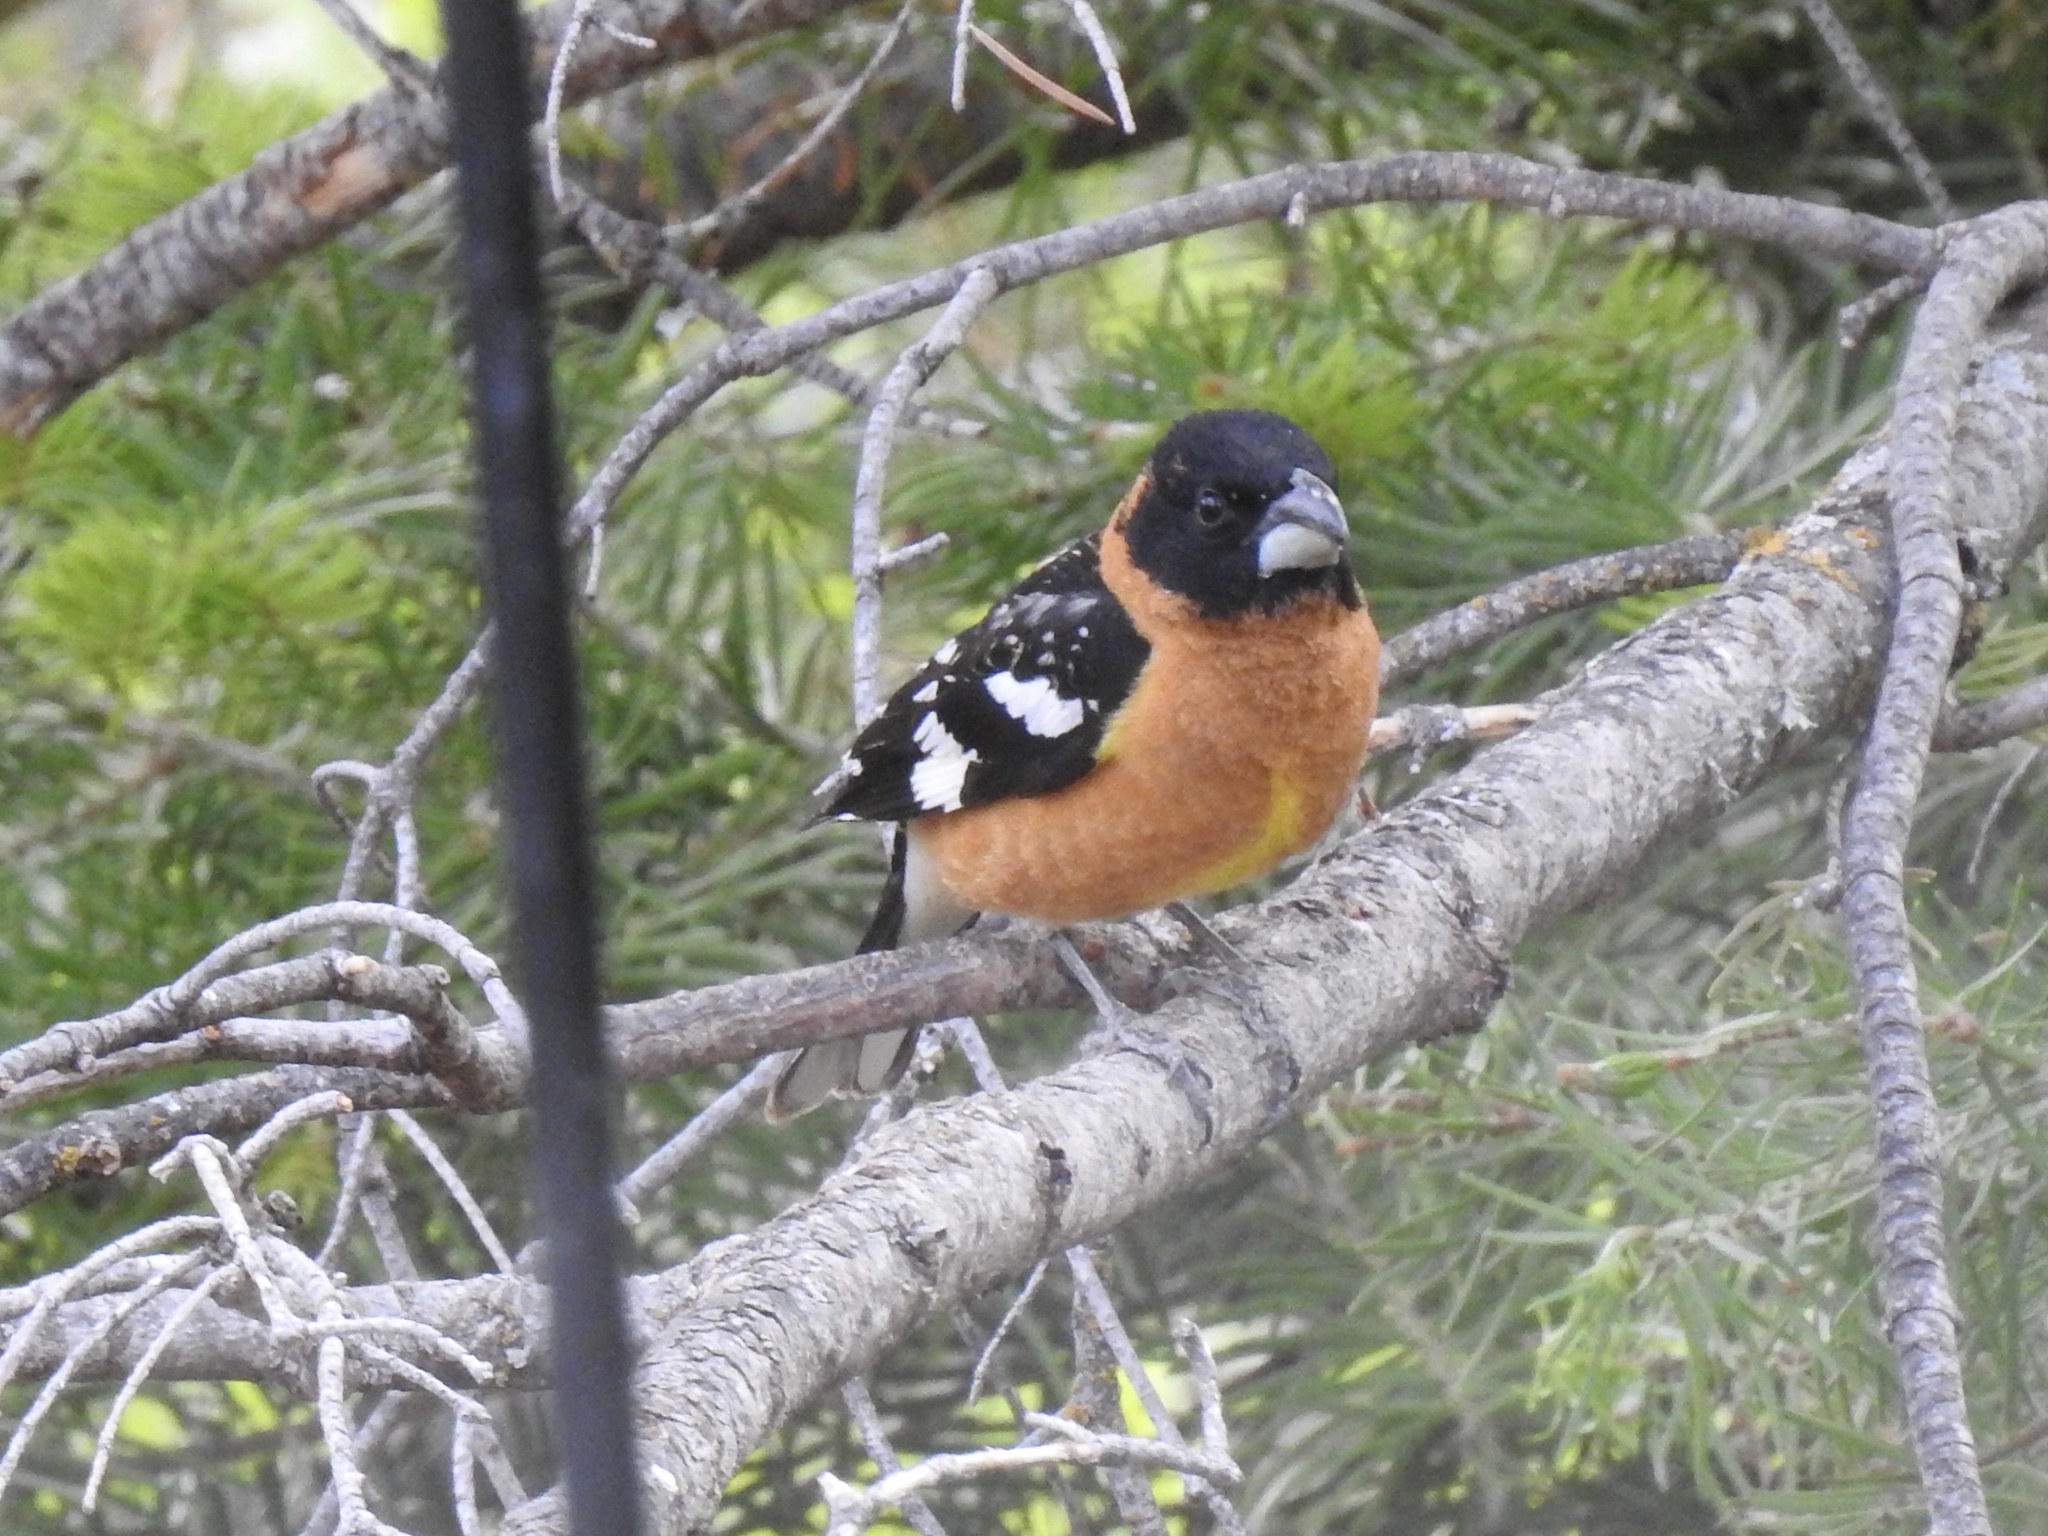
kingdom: Animalia
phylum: Chordata
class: Aves
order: Passeriformes
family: Cardinalidae
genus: Pheucticus
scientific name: Pheucticus melanocephalus
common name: Black-headed grosbeak
